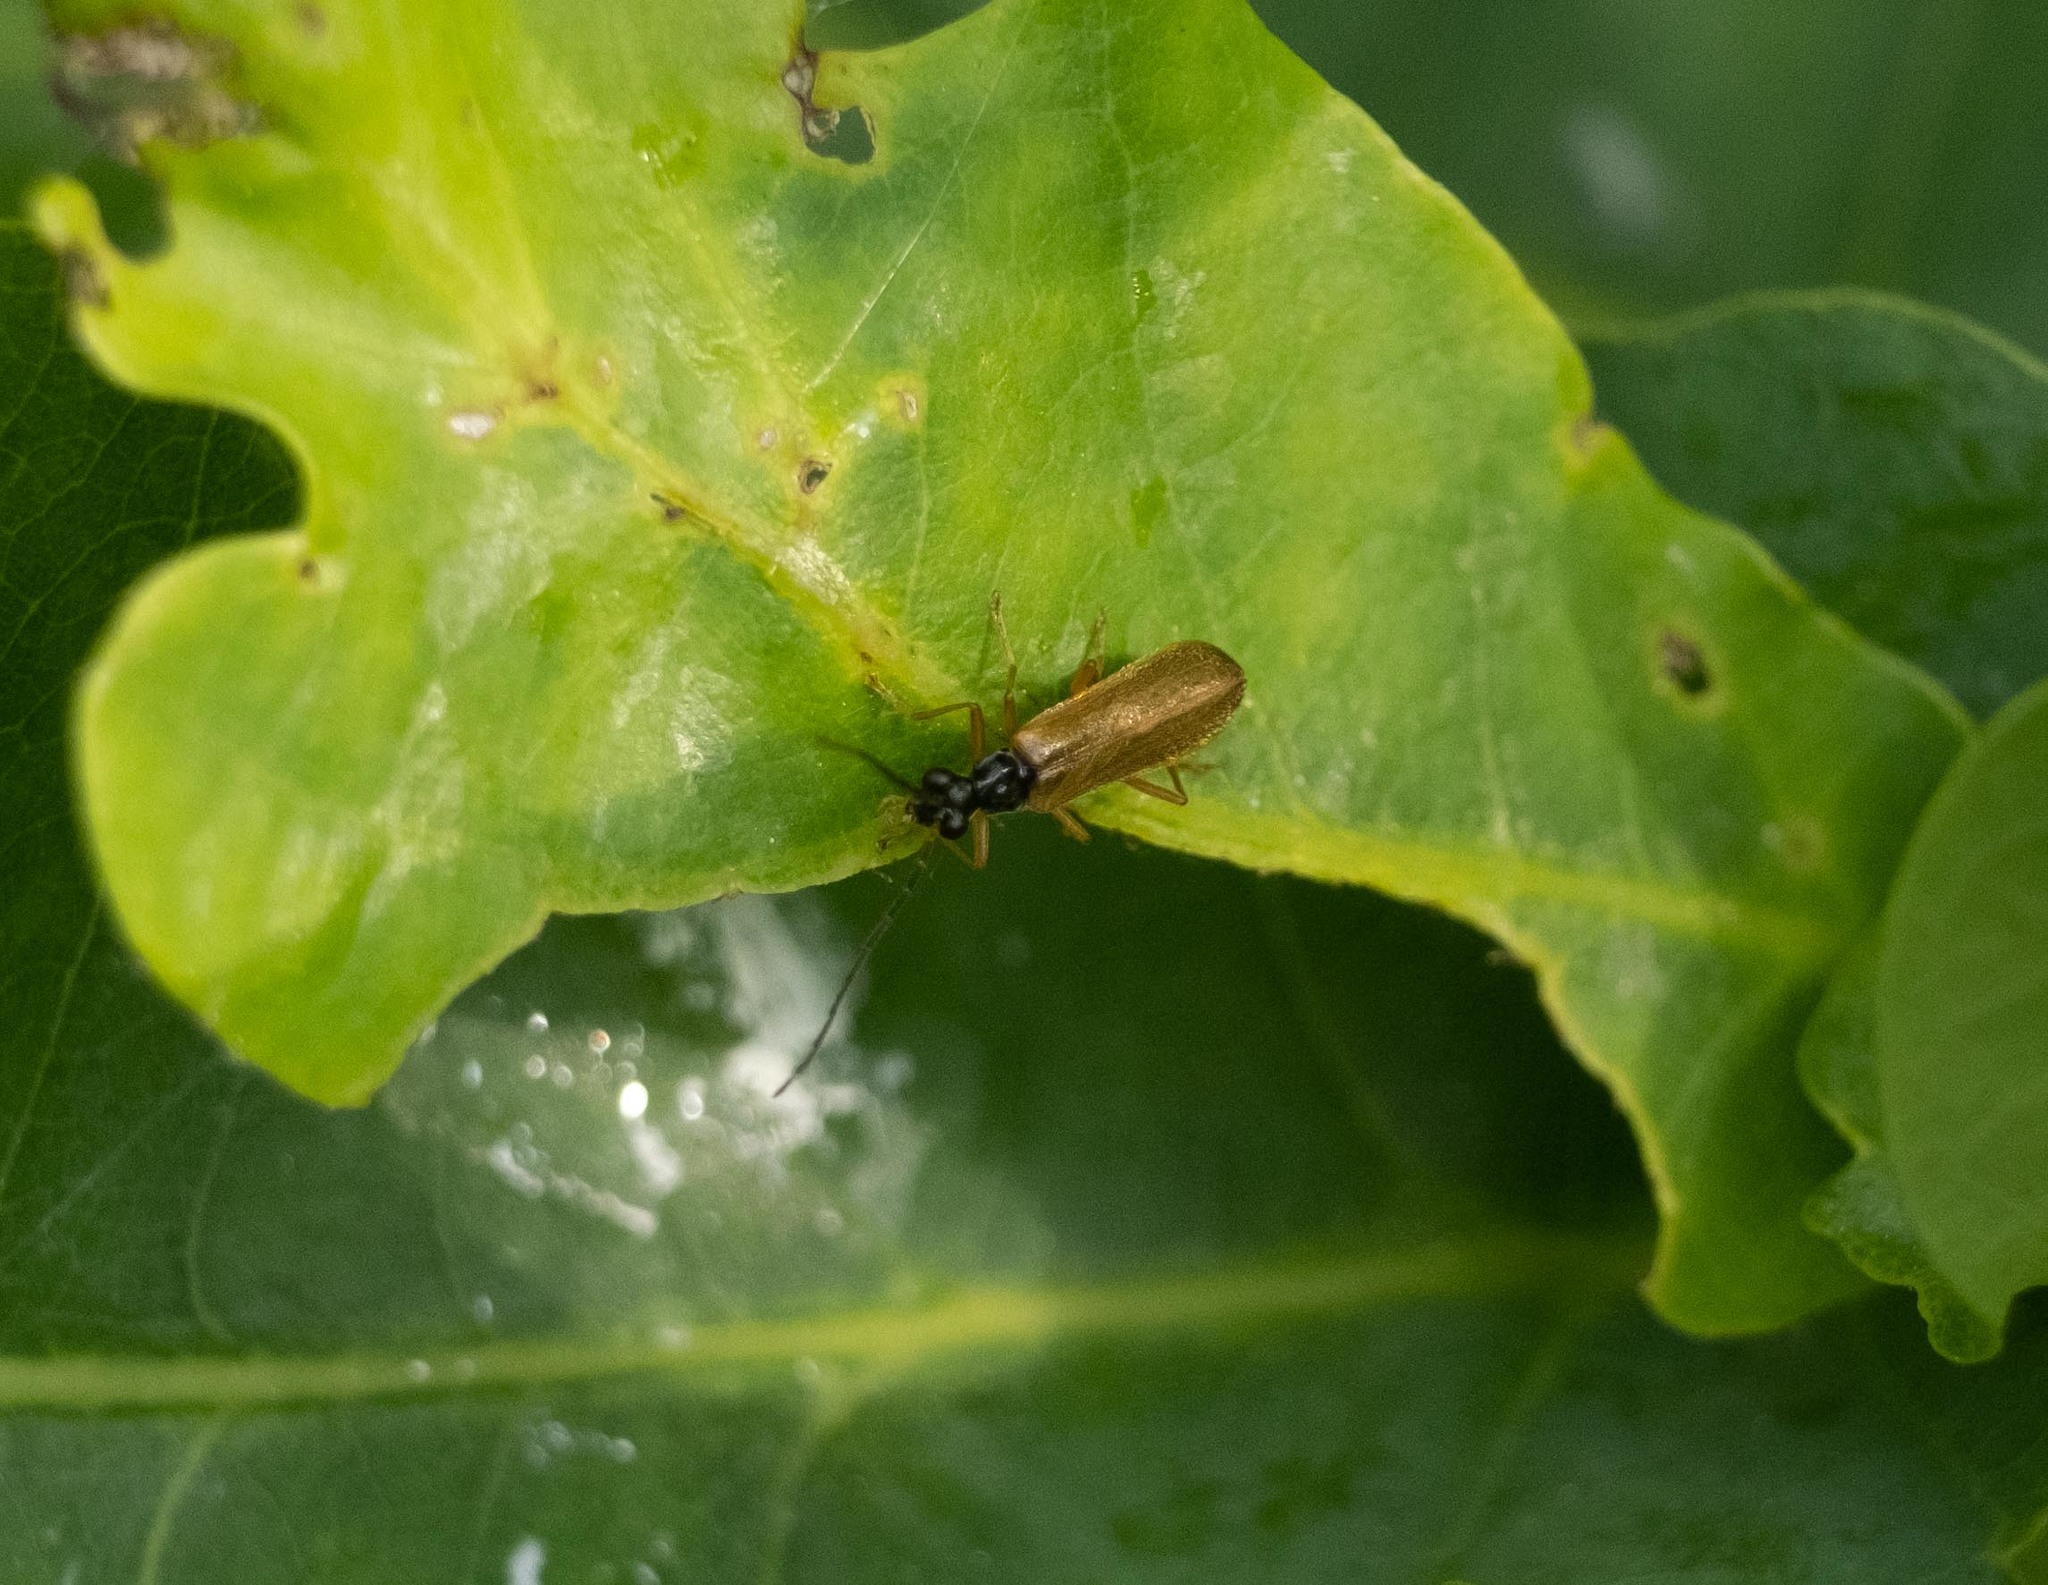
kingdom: Animalia
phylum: Arthropoda
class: Insecta
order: Coleoptera
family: Cantharidae
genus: Rhagonycha
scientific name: Rhagonycha lignosa
